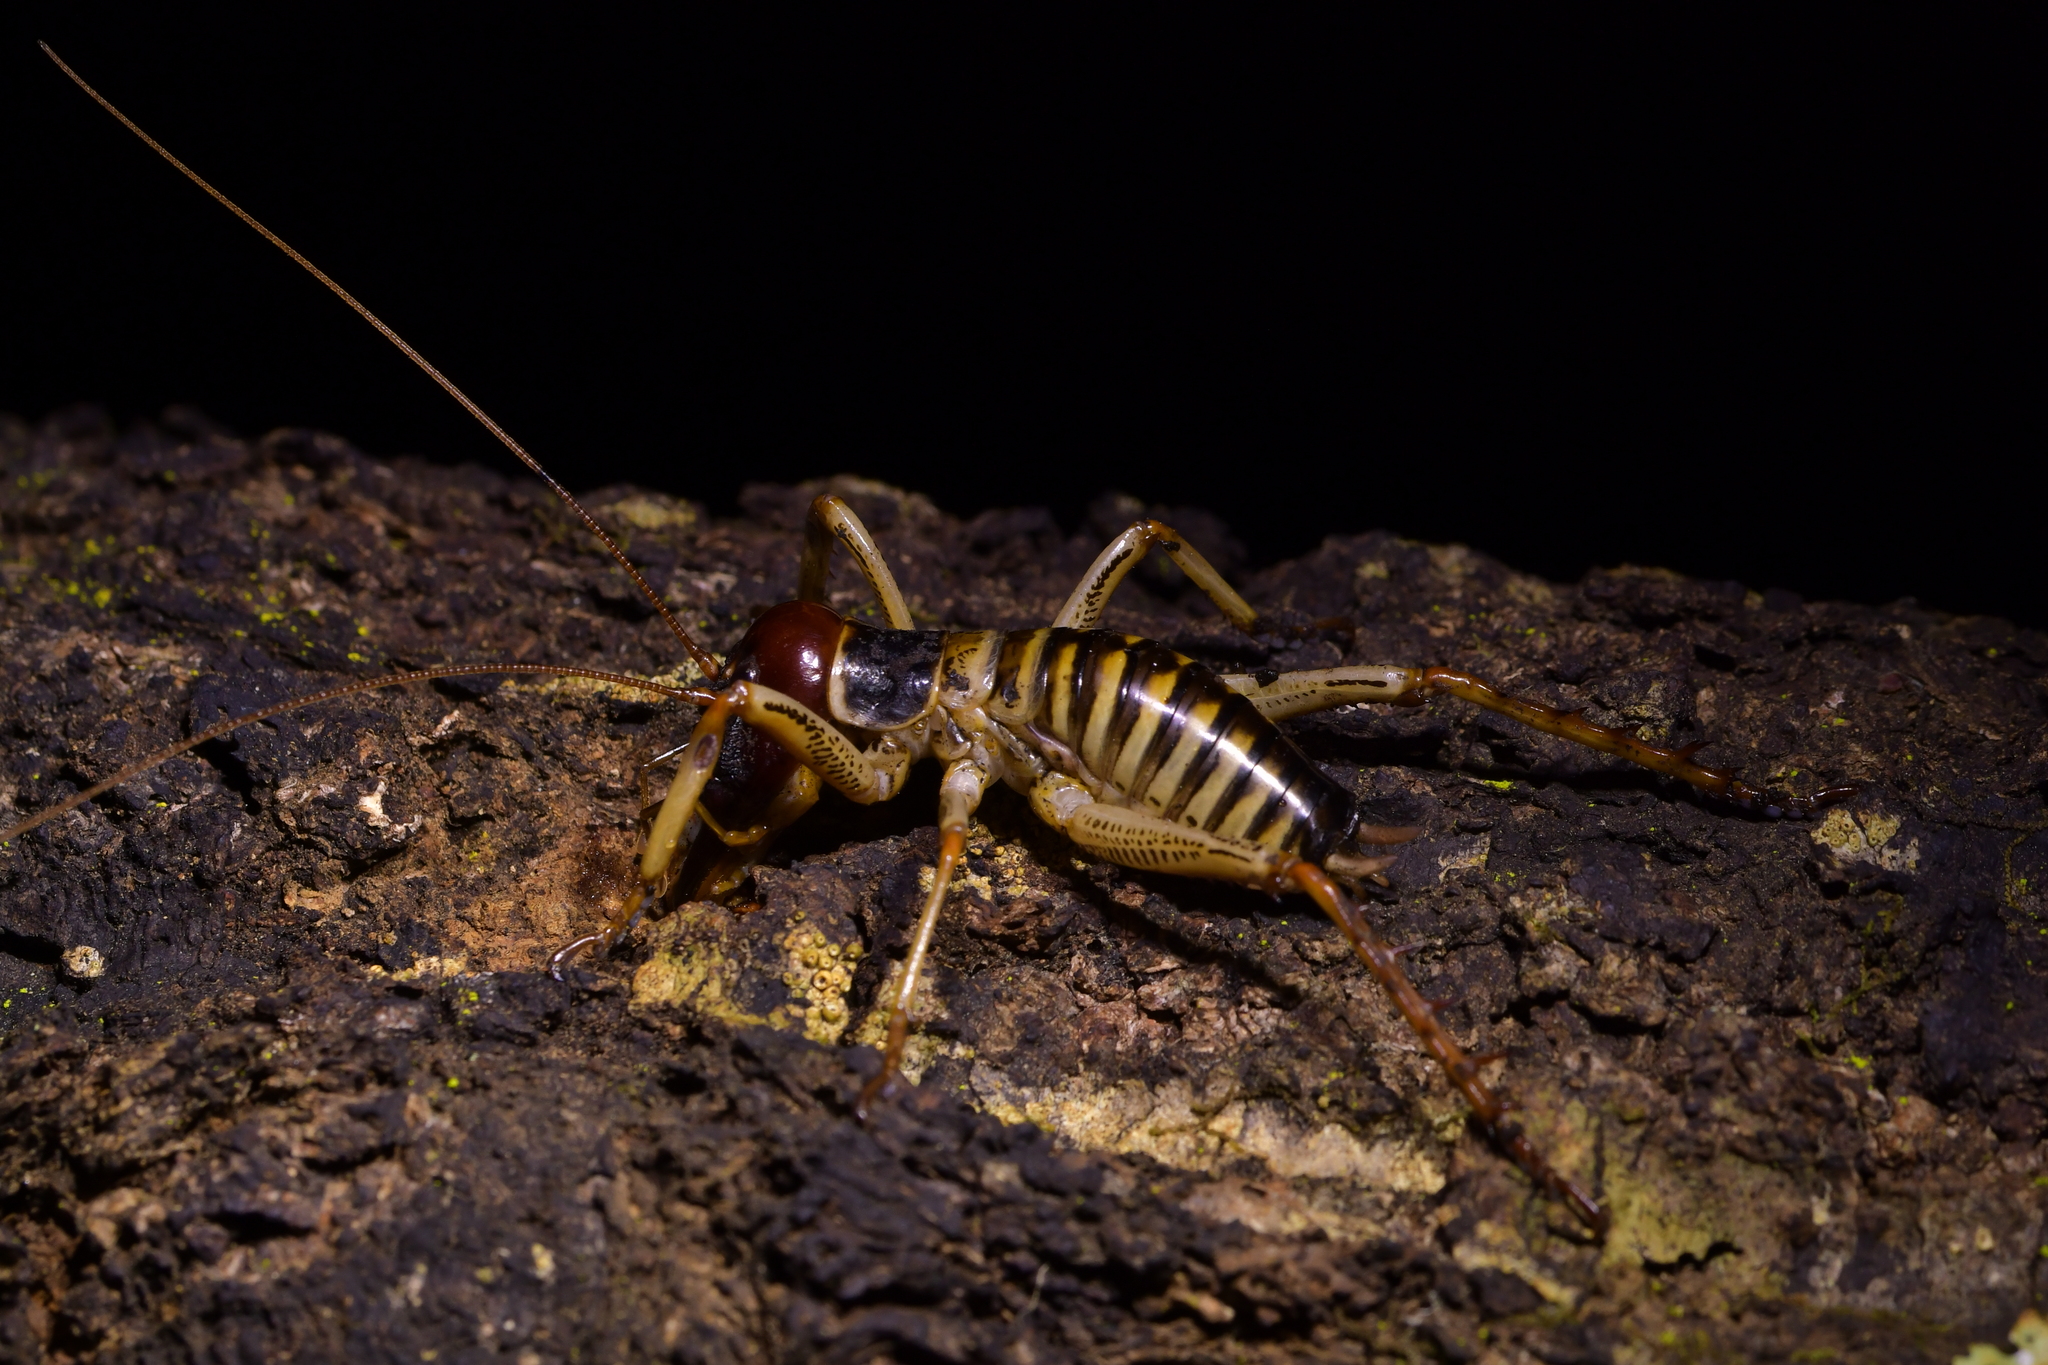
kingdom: Animalia
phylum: Arthropoda
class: Insecta
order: Orthoptera
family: Anostostomatidae
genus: Hemideina
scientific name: Hemideina crassidens
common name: Wellington tree weta
